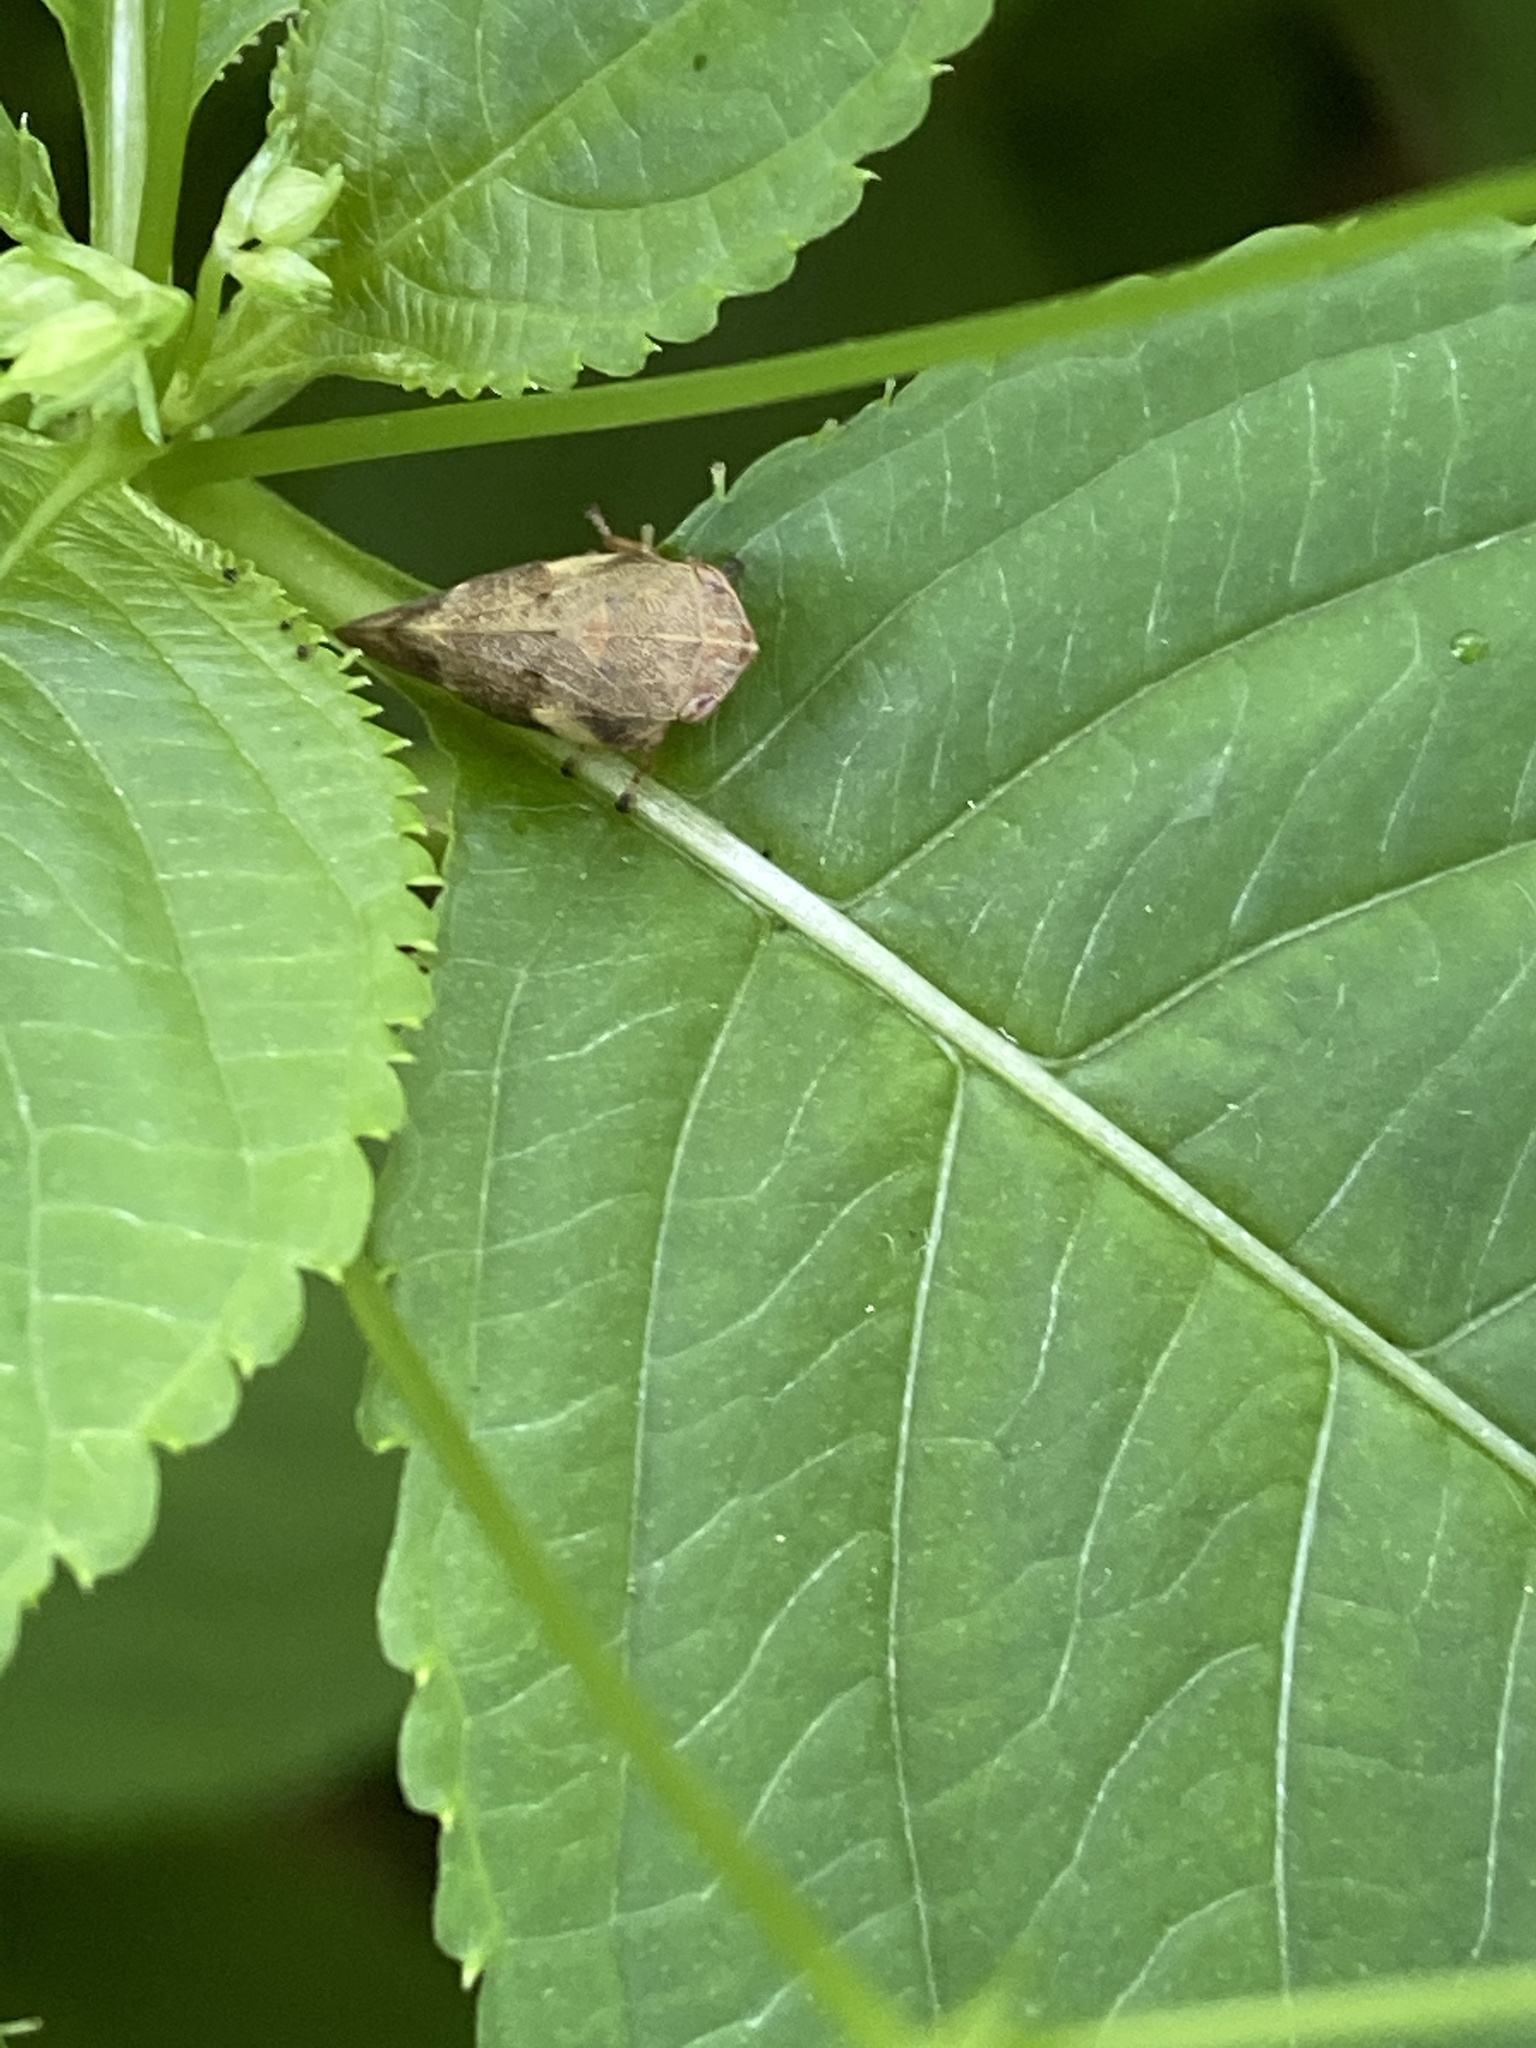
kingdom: Animalia
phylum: Arthropoda
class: Insecta
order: Hemiptera
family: Aphrophoridae
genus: Aphrophora
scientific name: Aphrophora alni
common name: European alder spittlebug
